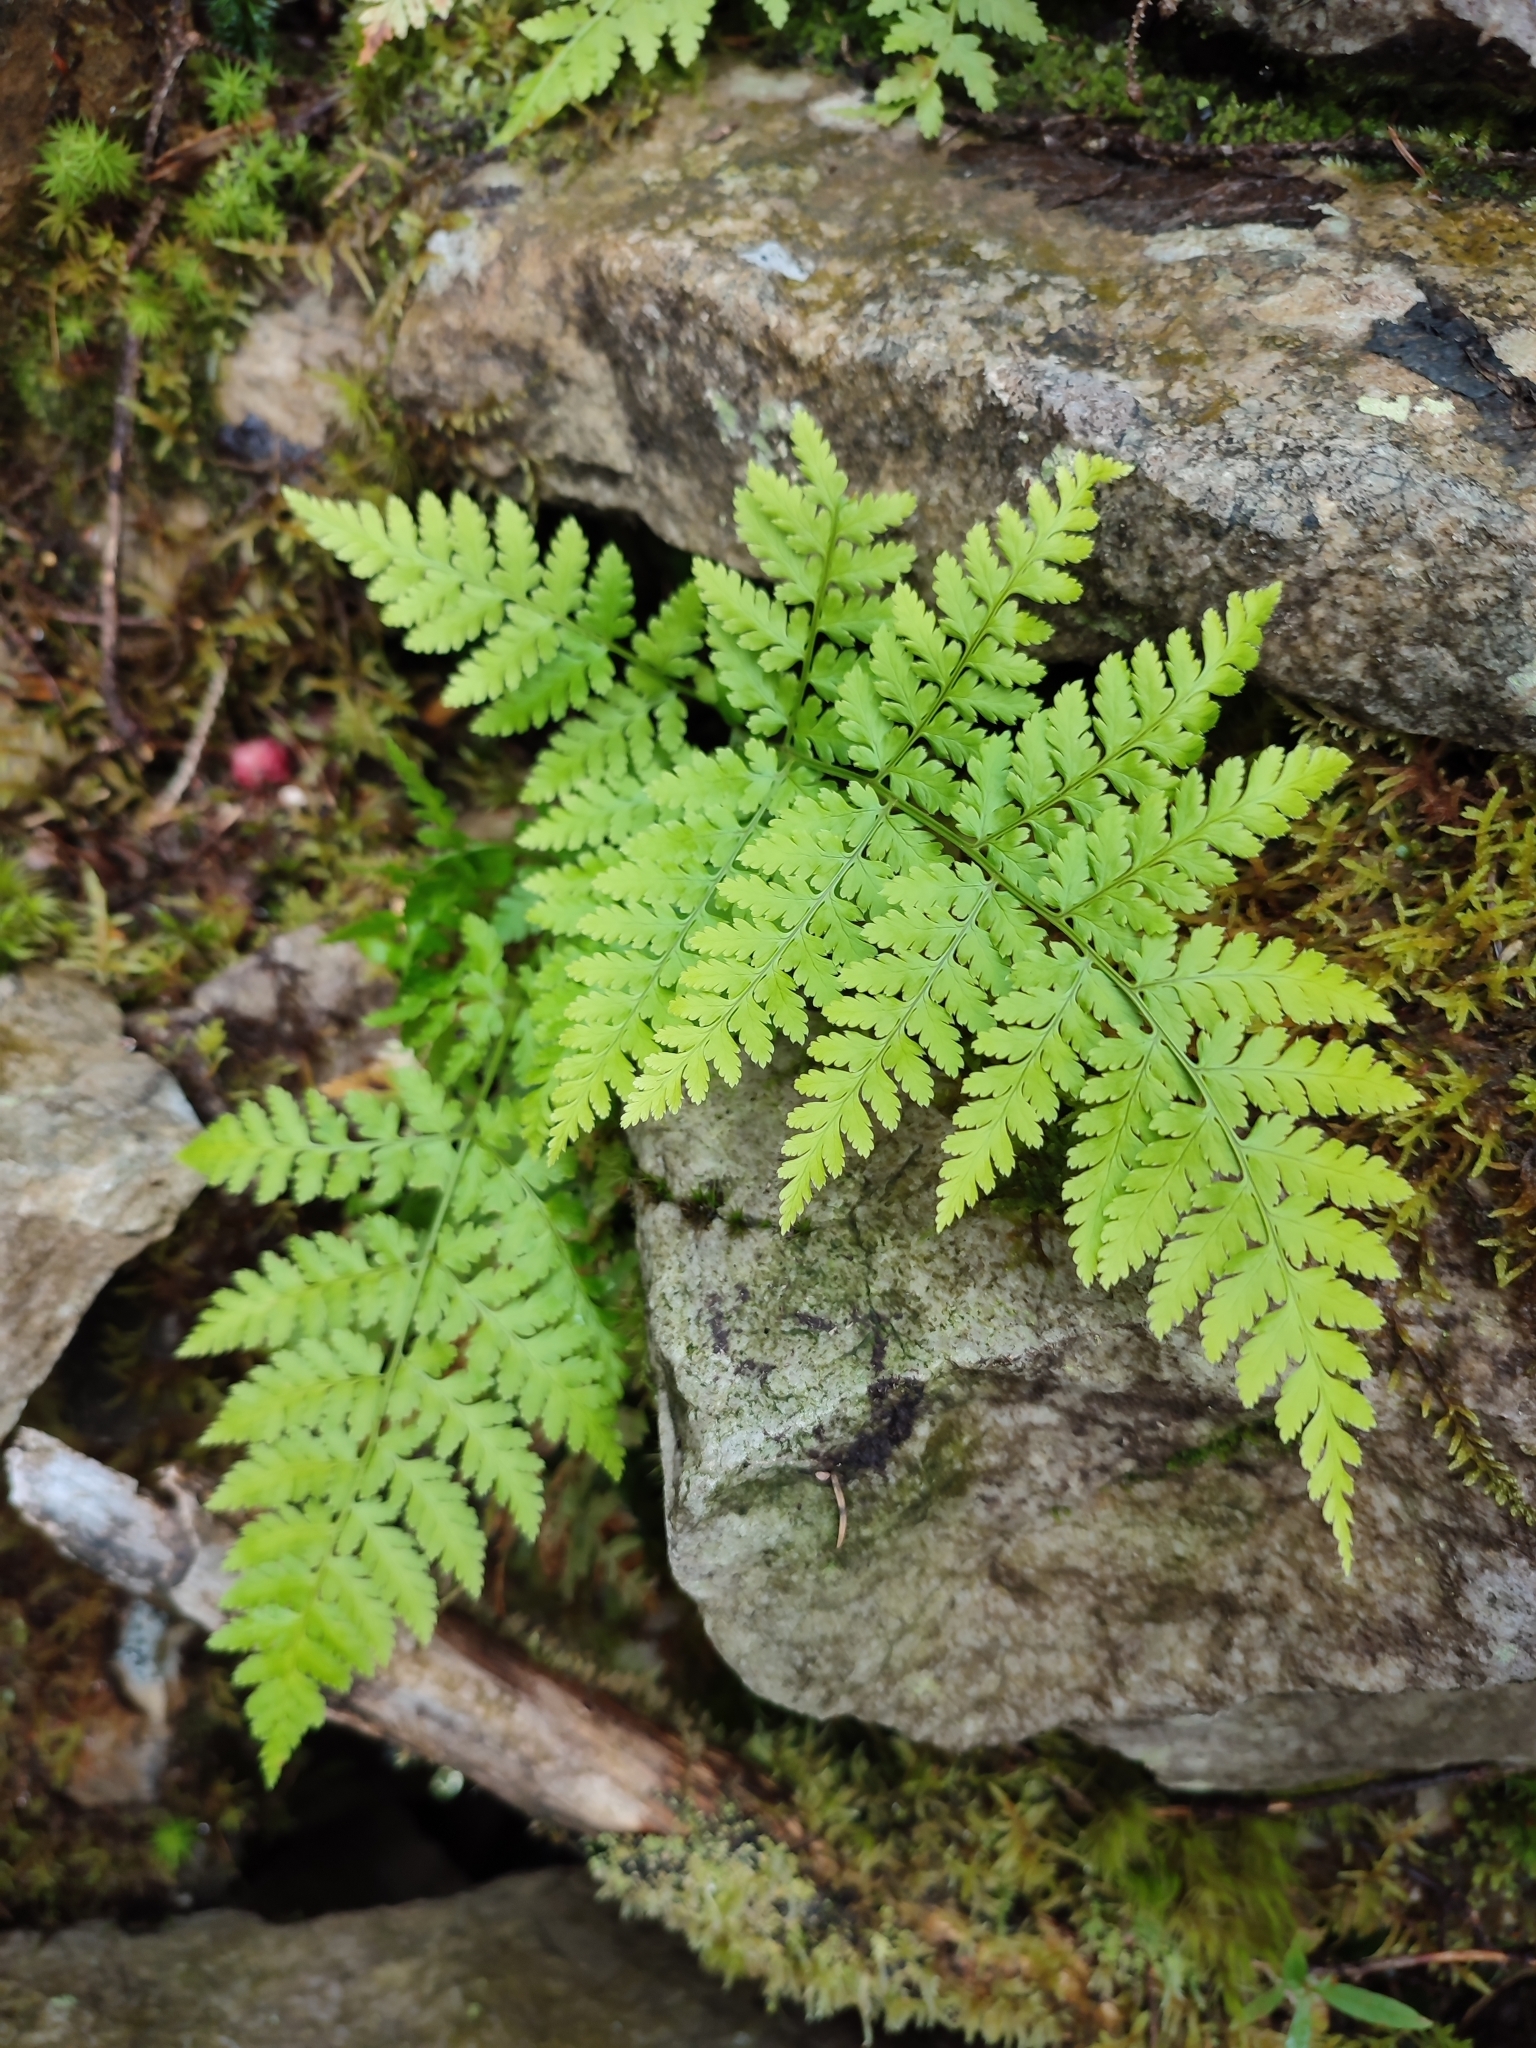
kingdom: Plantae
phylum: Tracheophyta
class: Polypodiopsida
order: Polypodiales
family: Dryopteridaceae
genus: Dryopteris
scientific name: Dryopteris carthusiana
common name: Narrow buckler-fern
